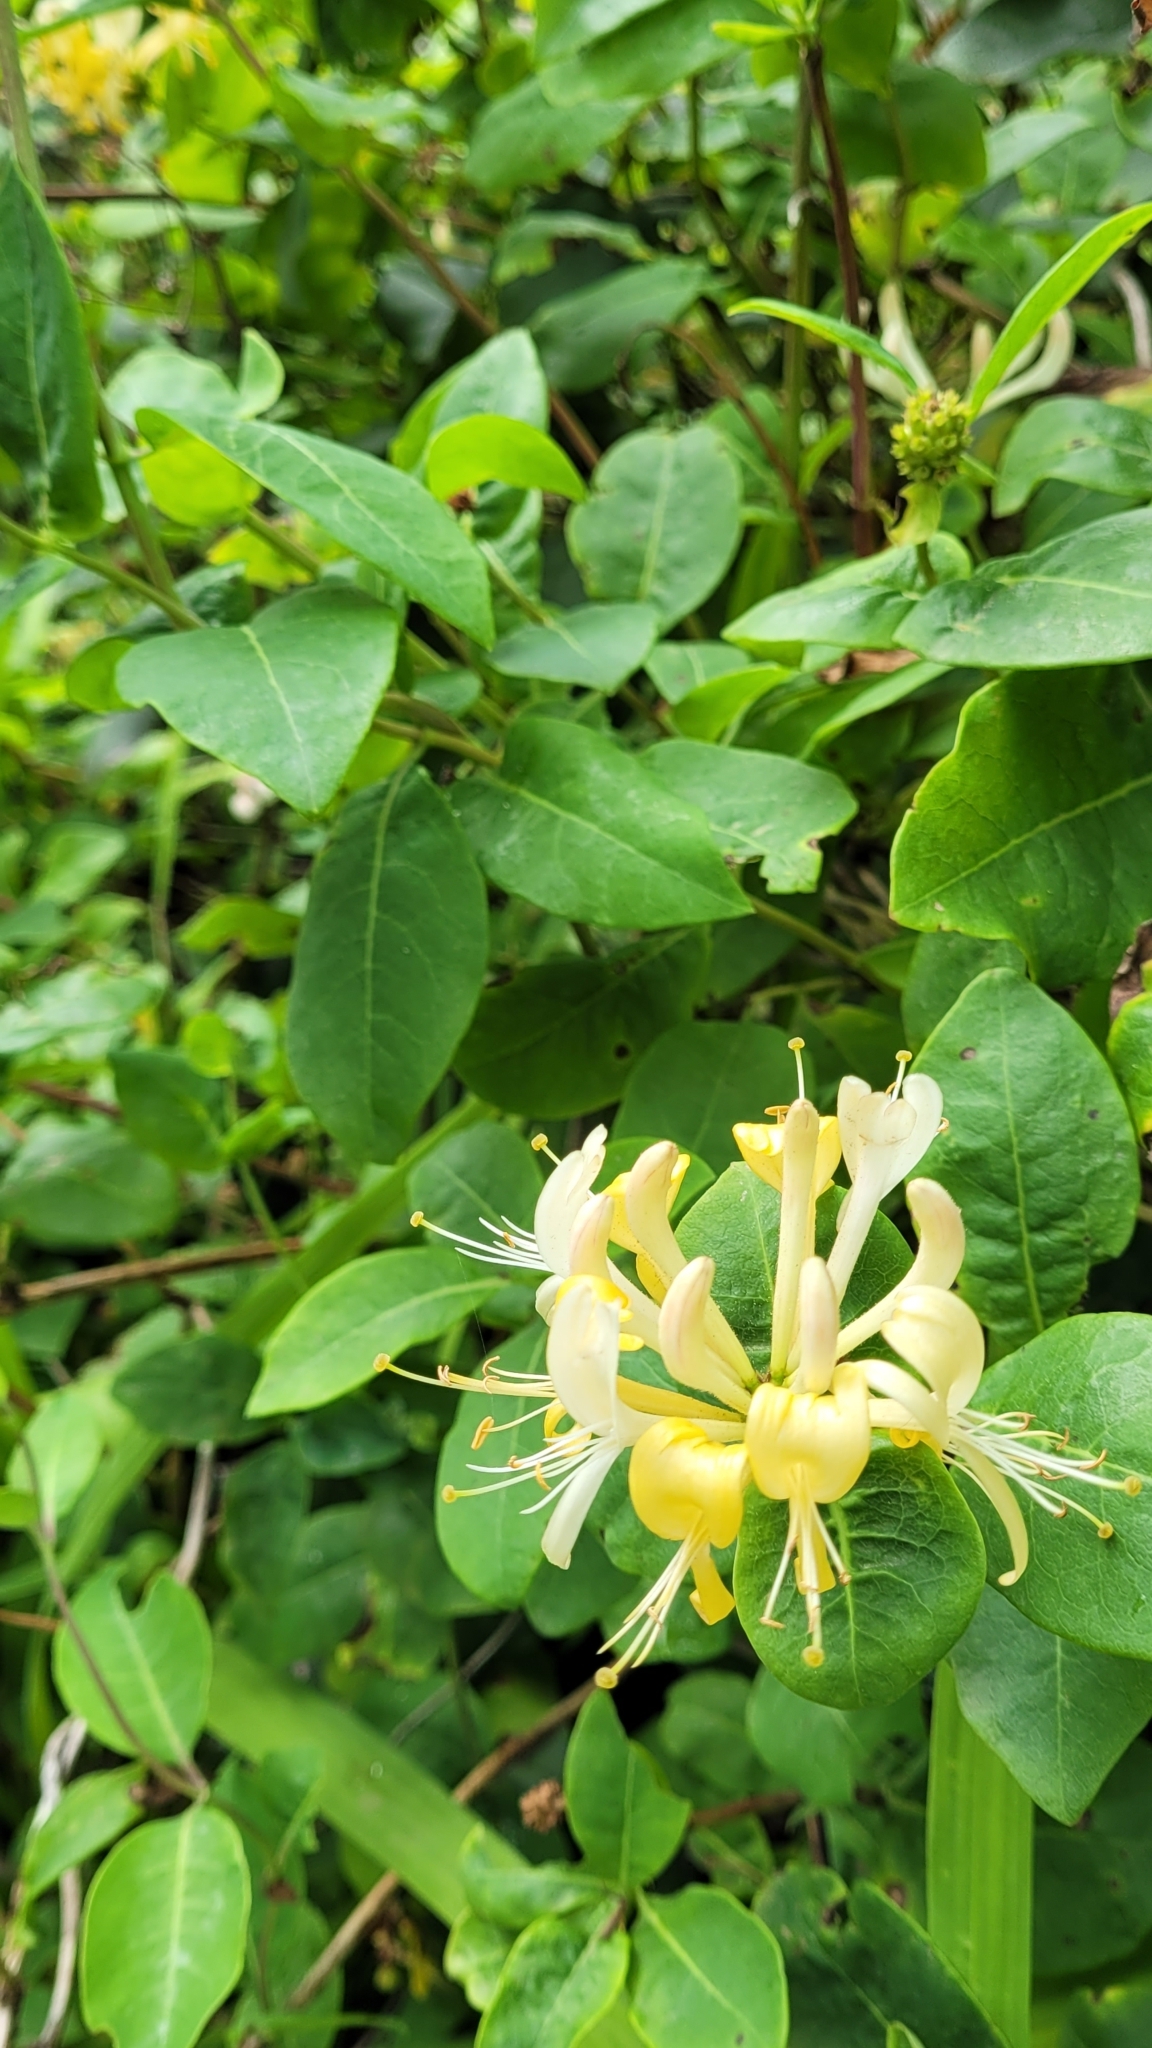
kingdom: Plantae
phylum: Tracheophyta
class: Magnoliopsida
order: Dipsacales
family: Caprifoliaceae
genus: Lonicera
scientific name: Lonicera periclymenum
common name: European honeysuckle
